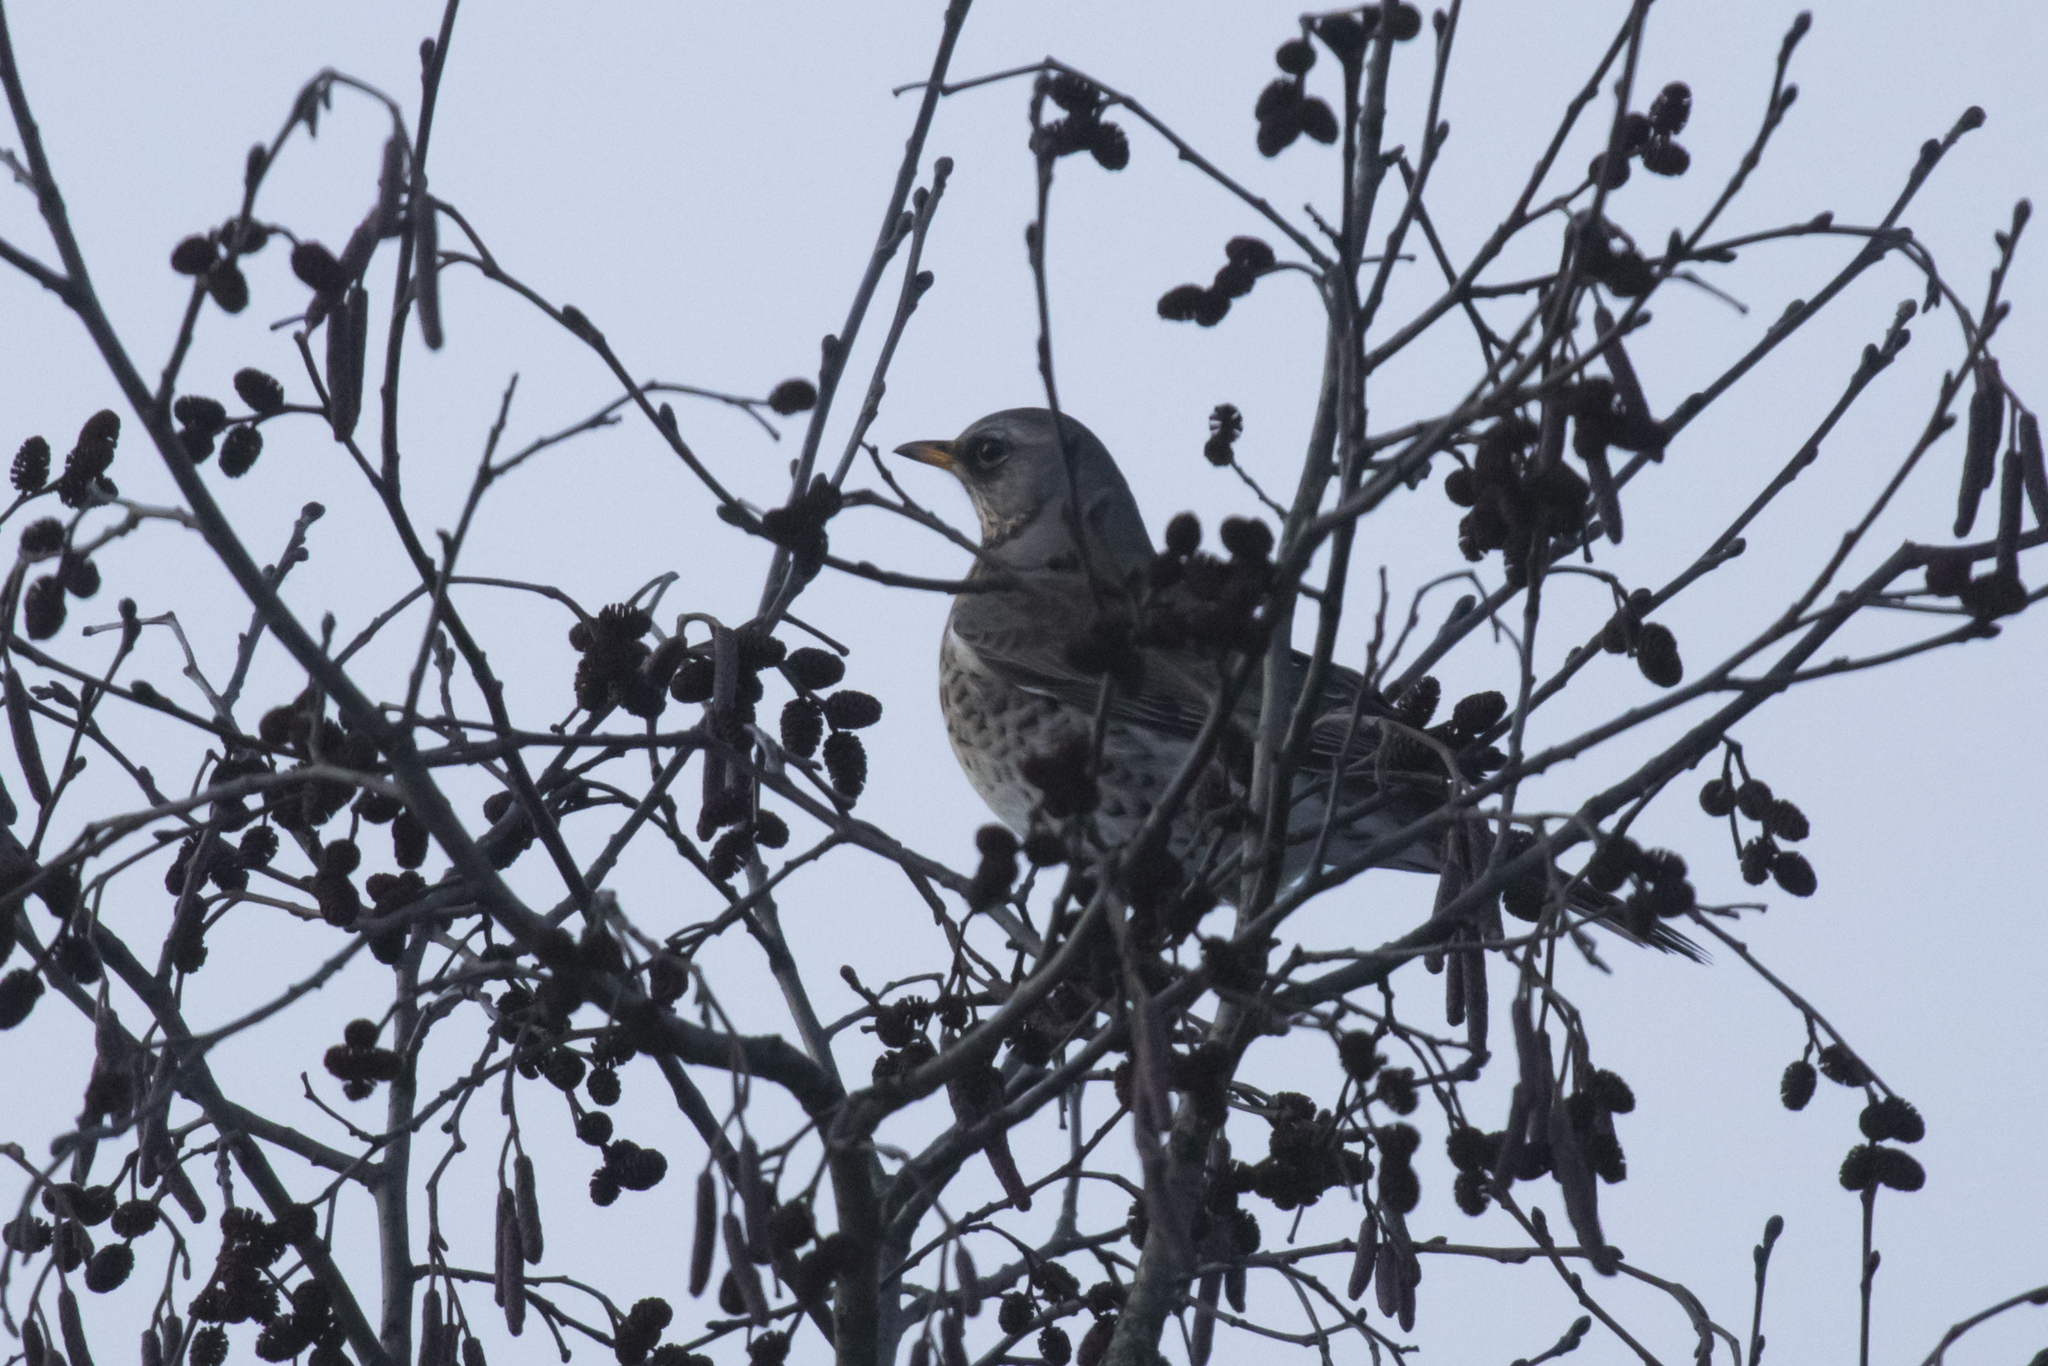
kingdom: Animalia
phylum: Chordata
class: Aves
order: Passeriformes
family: Turdidae
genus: Turdus
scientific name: Turdus pilaris
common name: Fieldfare
